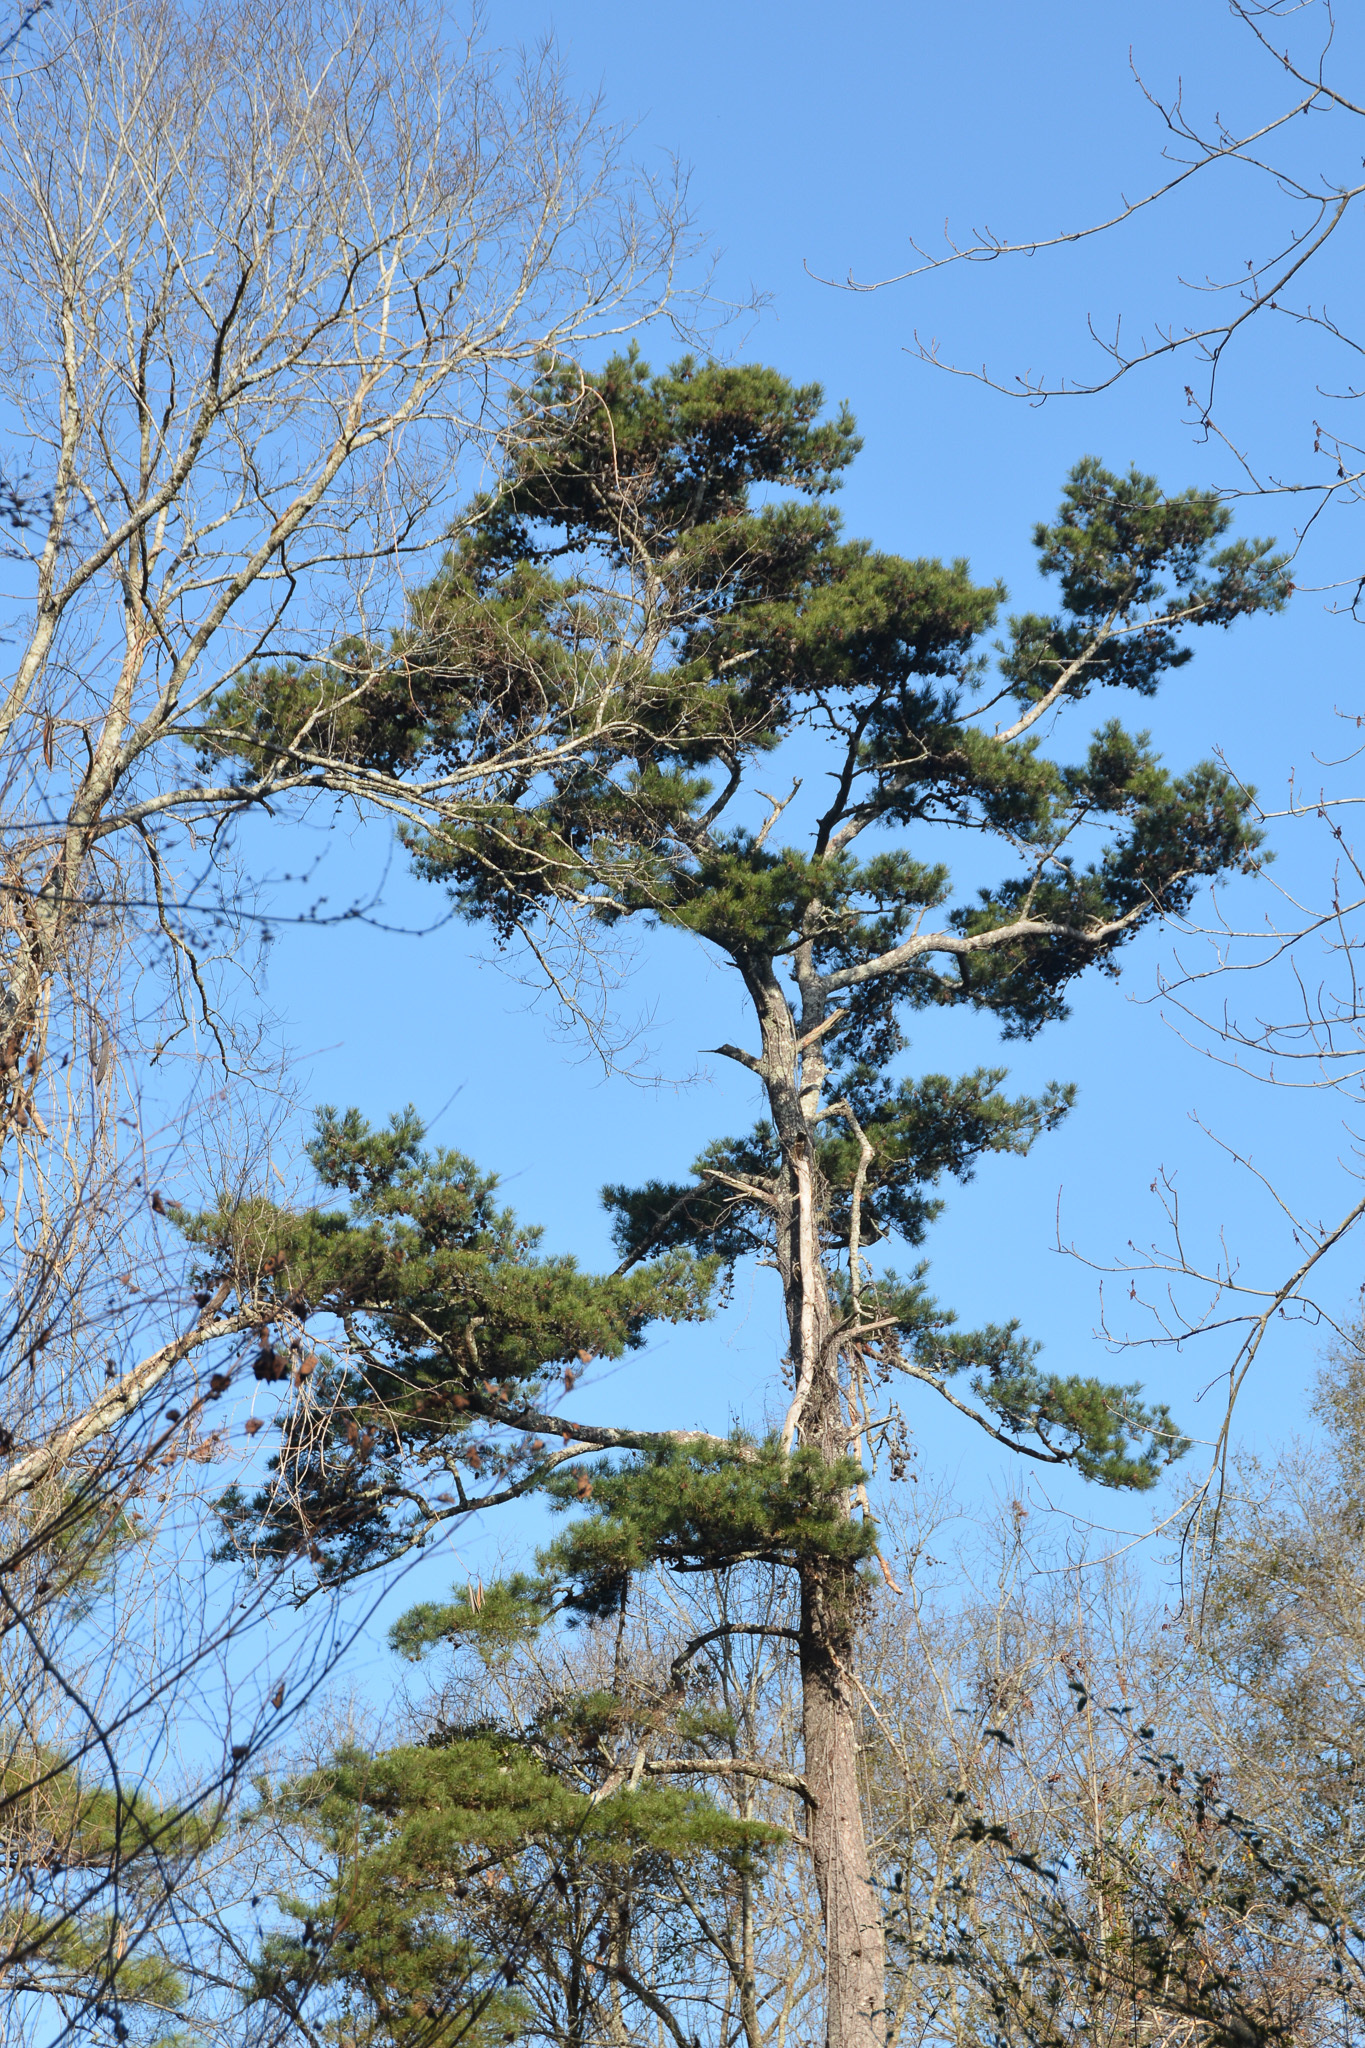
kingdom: Plantae
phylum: Tracheophyta
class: Pinopsida
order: Pinales
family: Pinaceae
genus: Pinus
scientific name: Pinus glabra
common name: Spruce pine
